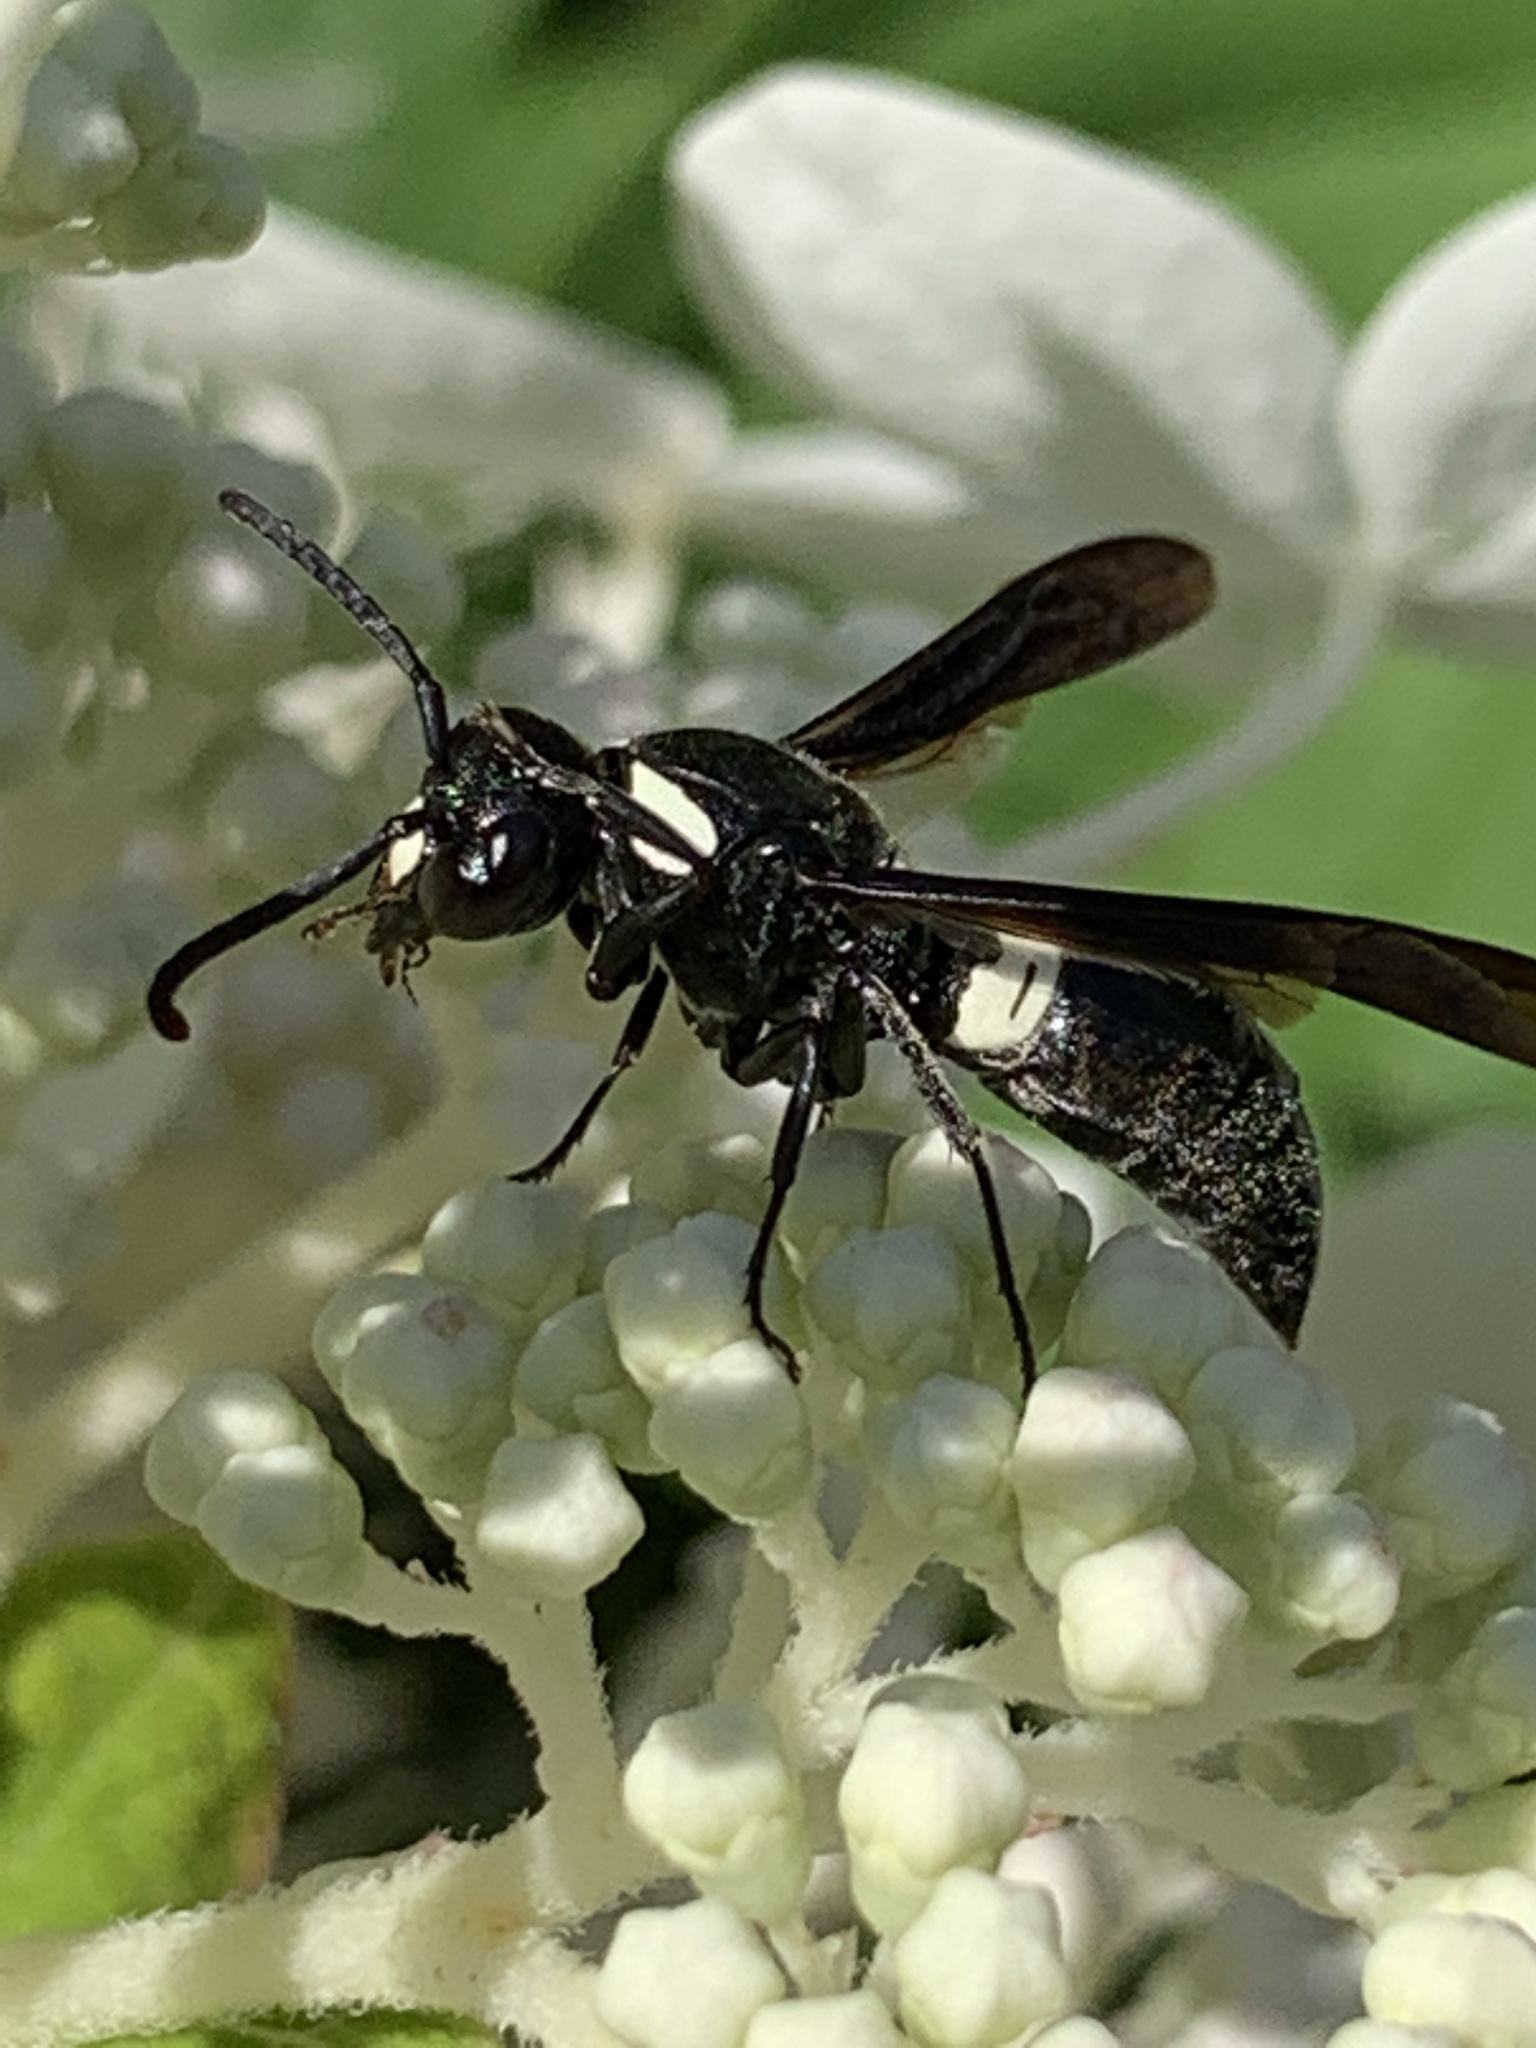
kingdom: Animalia
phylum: Arthropoda
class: Insecta
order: Hymenoptera
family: Eumenidae
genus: Monobia
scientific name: Monobia quadridens
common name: Four-toothed mason wasp
